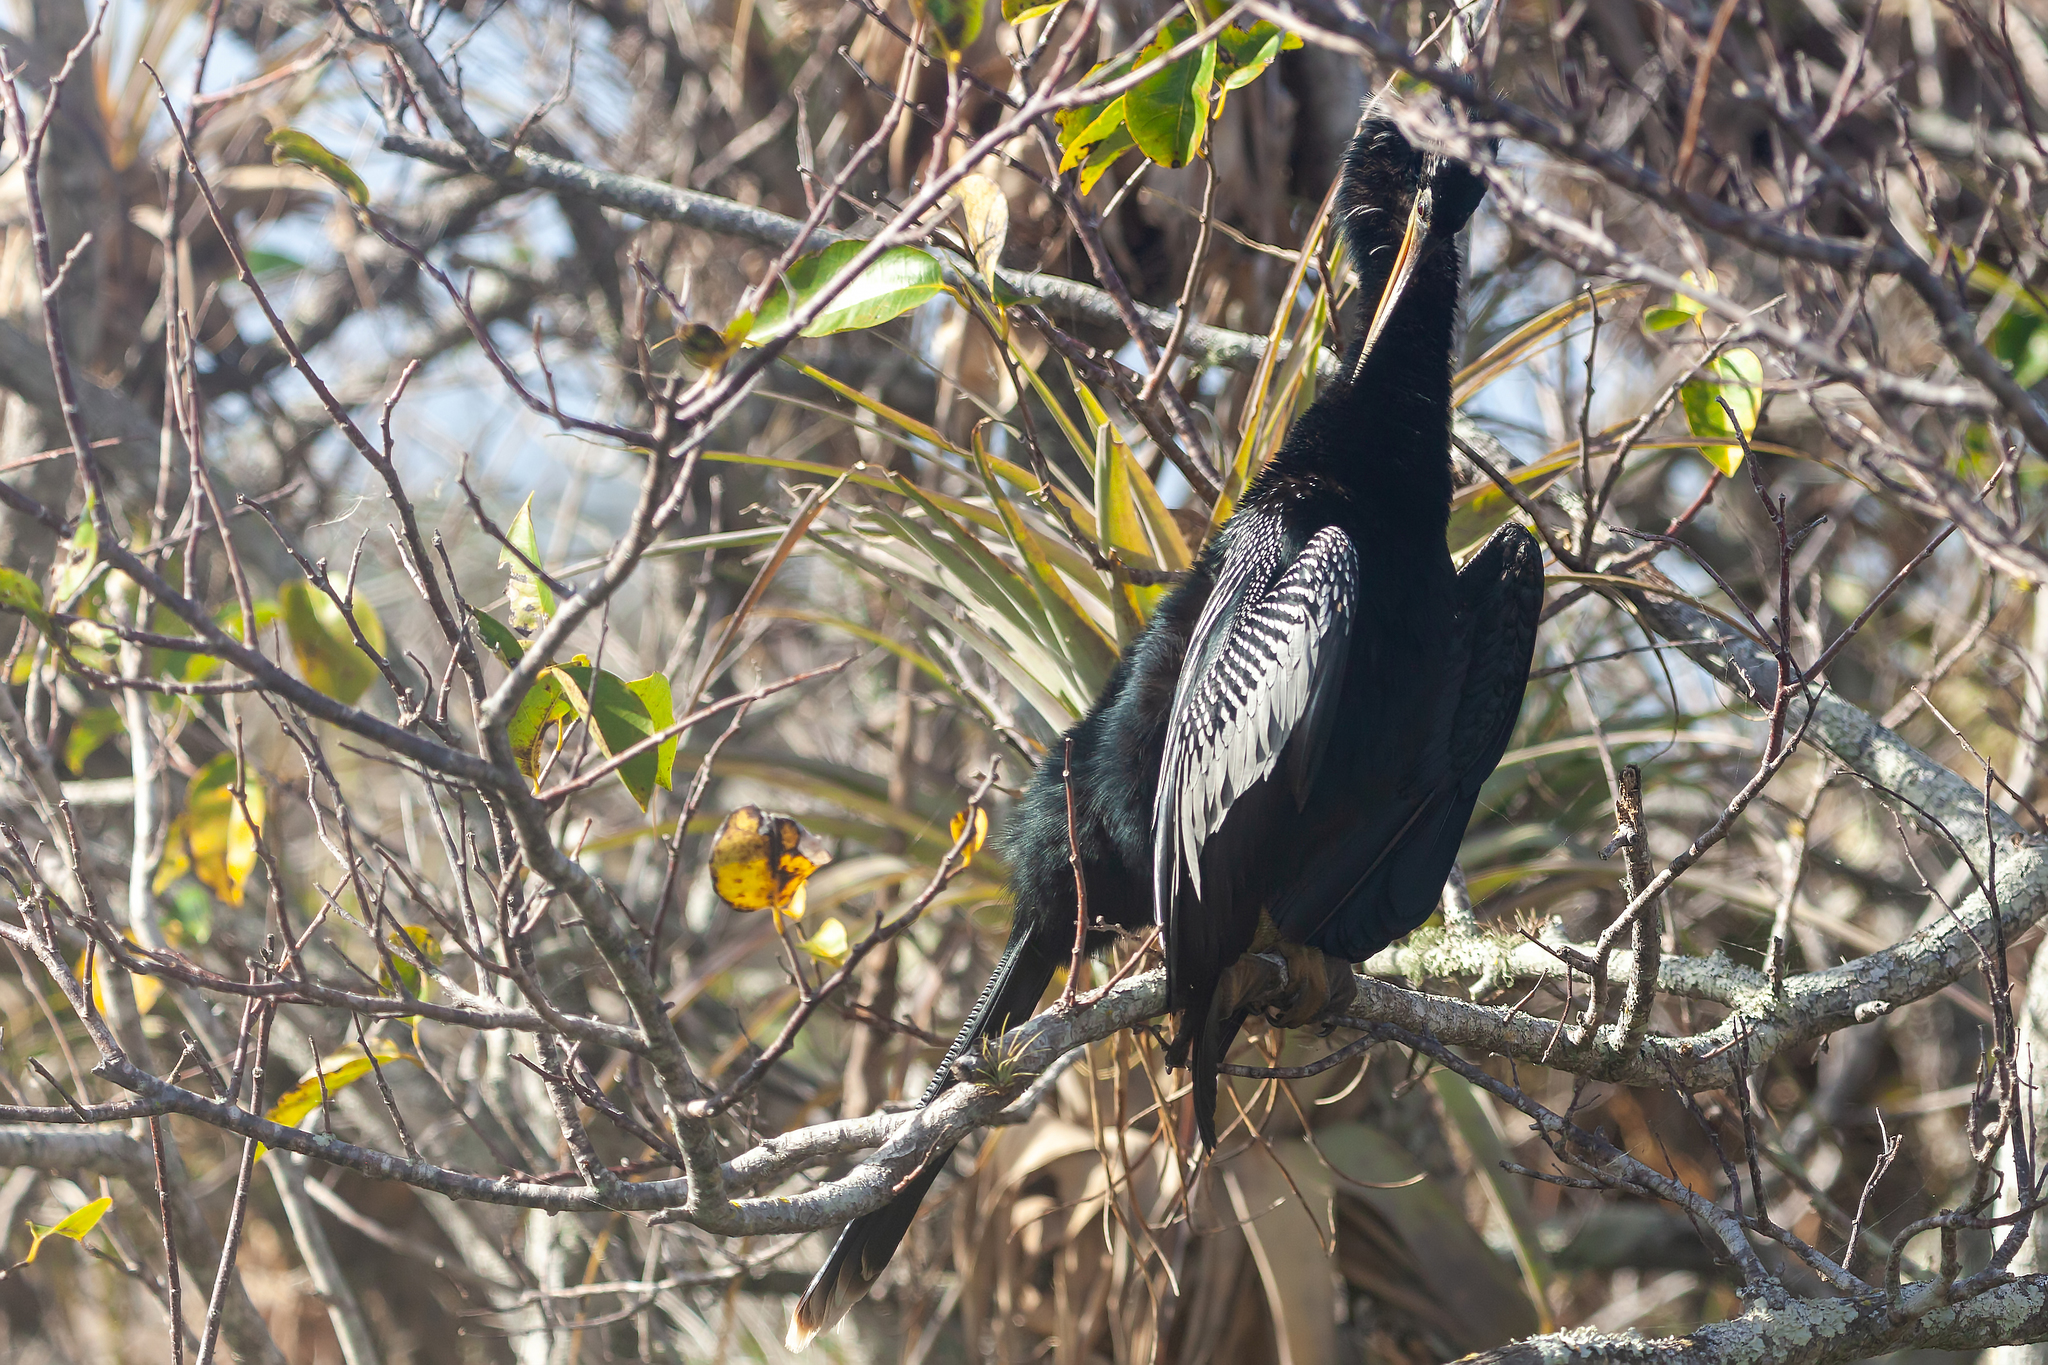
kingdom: Animalia
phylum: Chordata
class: Aves
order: Suliformes
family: Anhingidae
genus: Anhinga
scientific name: Anhinga anhinga
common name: Anhinga
